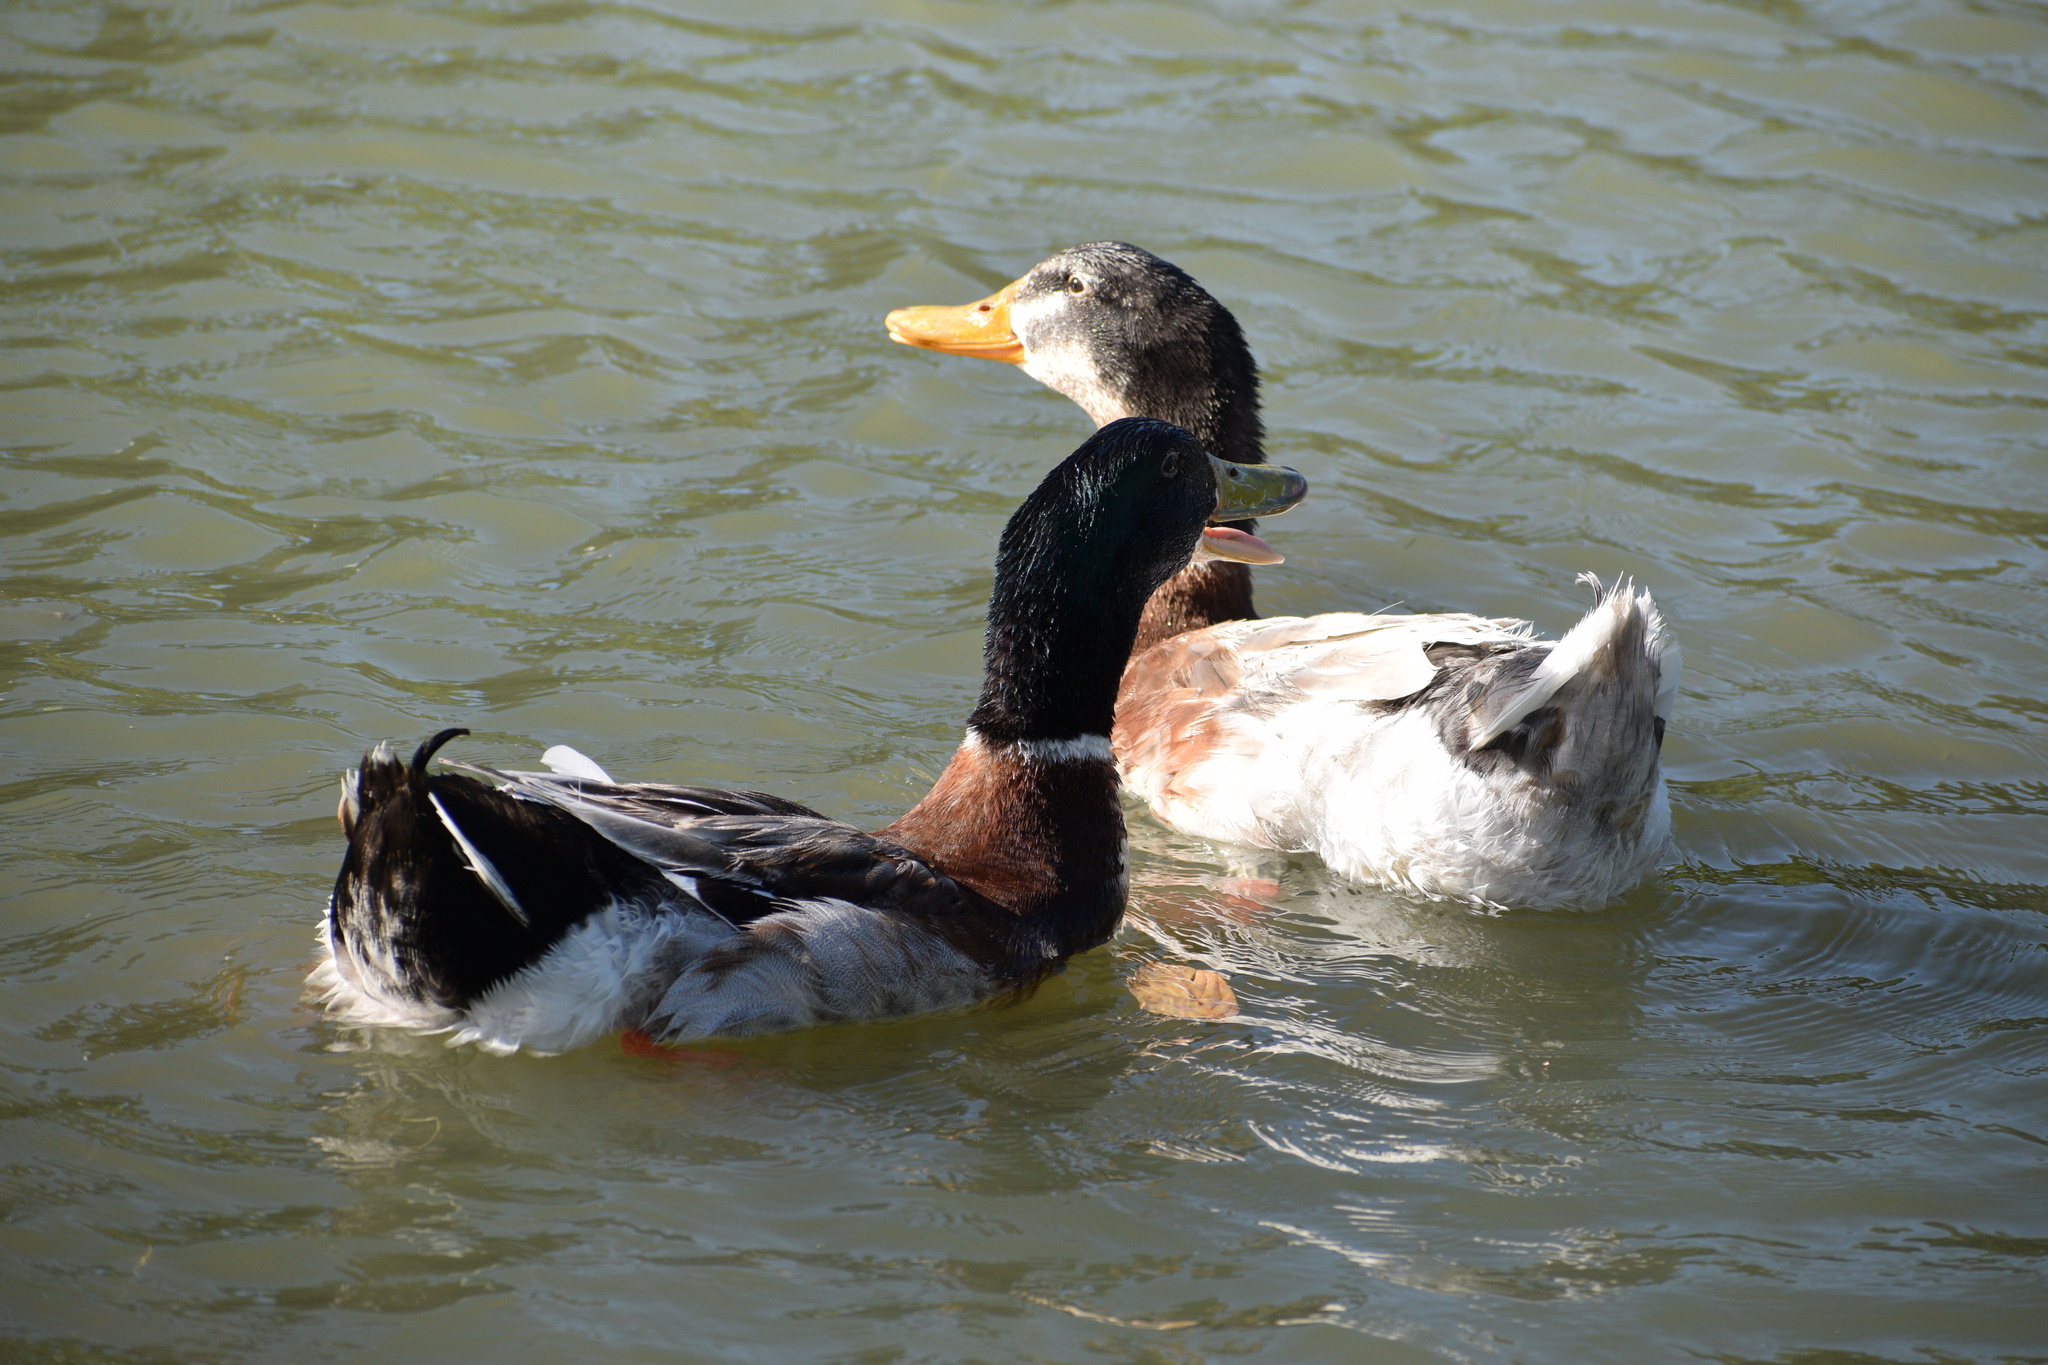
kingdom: Animalia
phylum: Chordata
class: Aves
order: Anseriformes
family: Anatidae
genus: Anas
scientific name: Anas platyrhynchos
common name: Mallard
